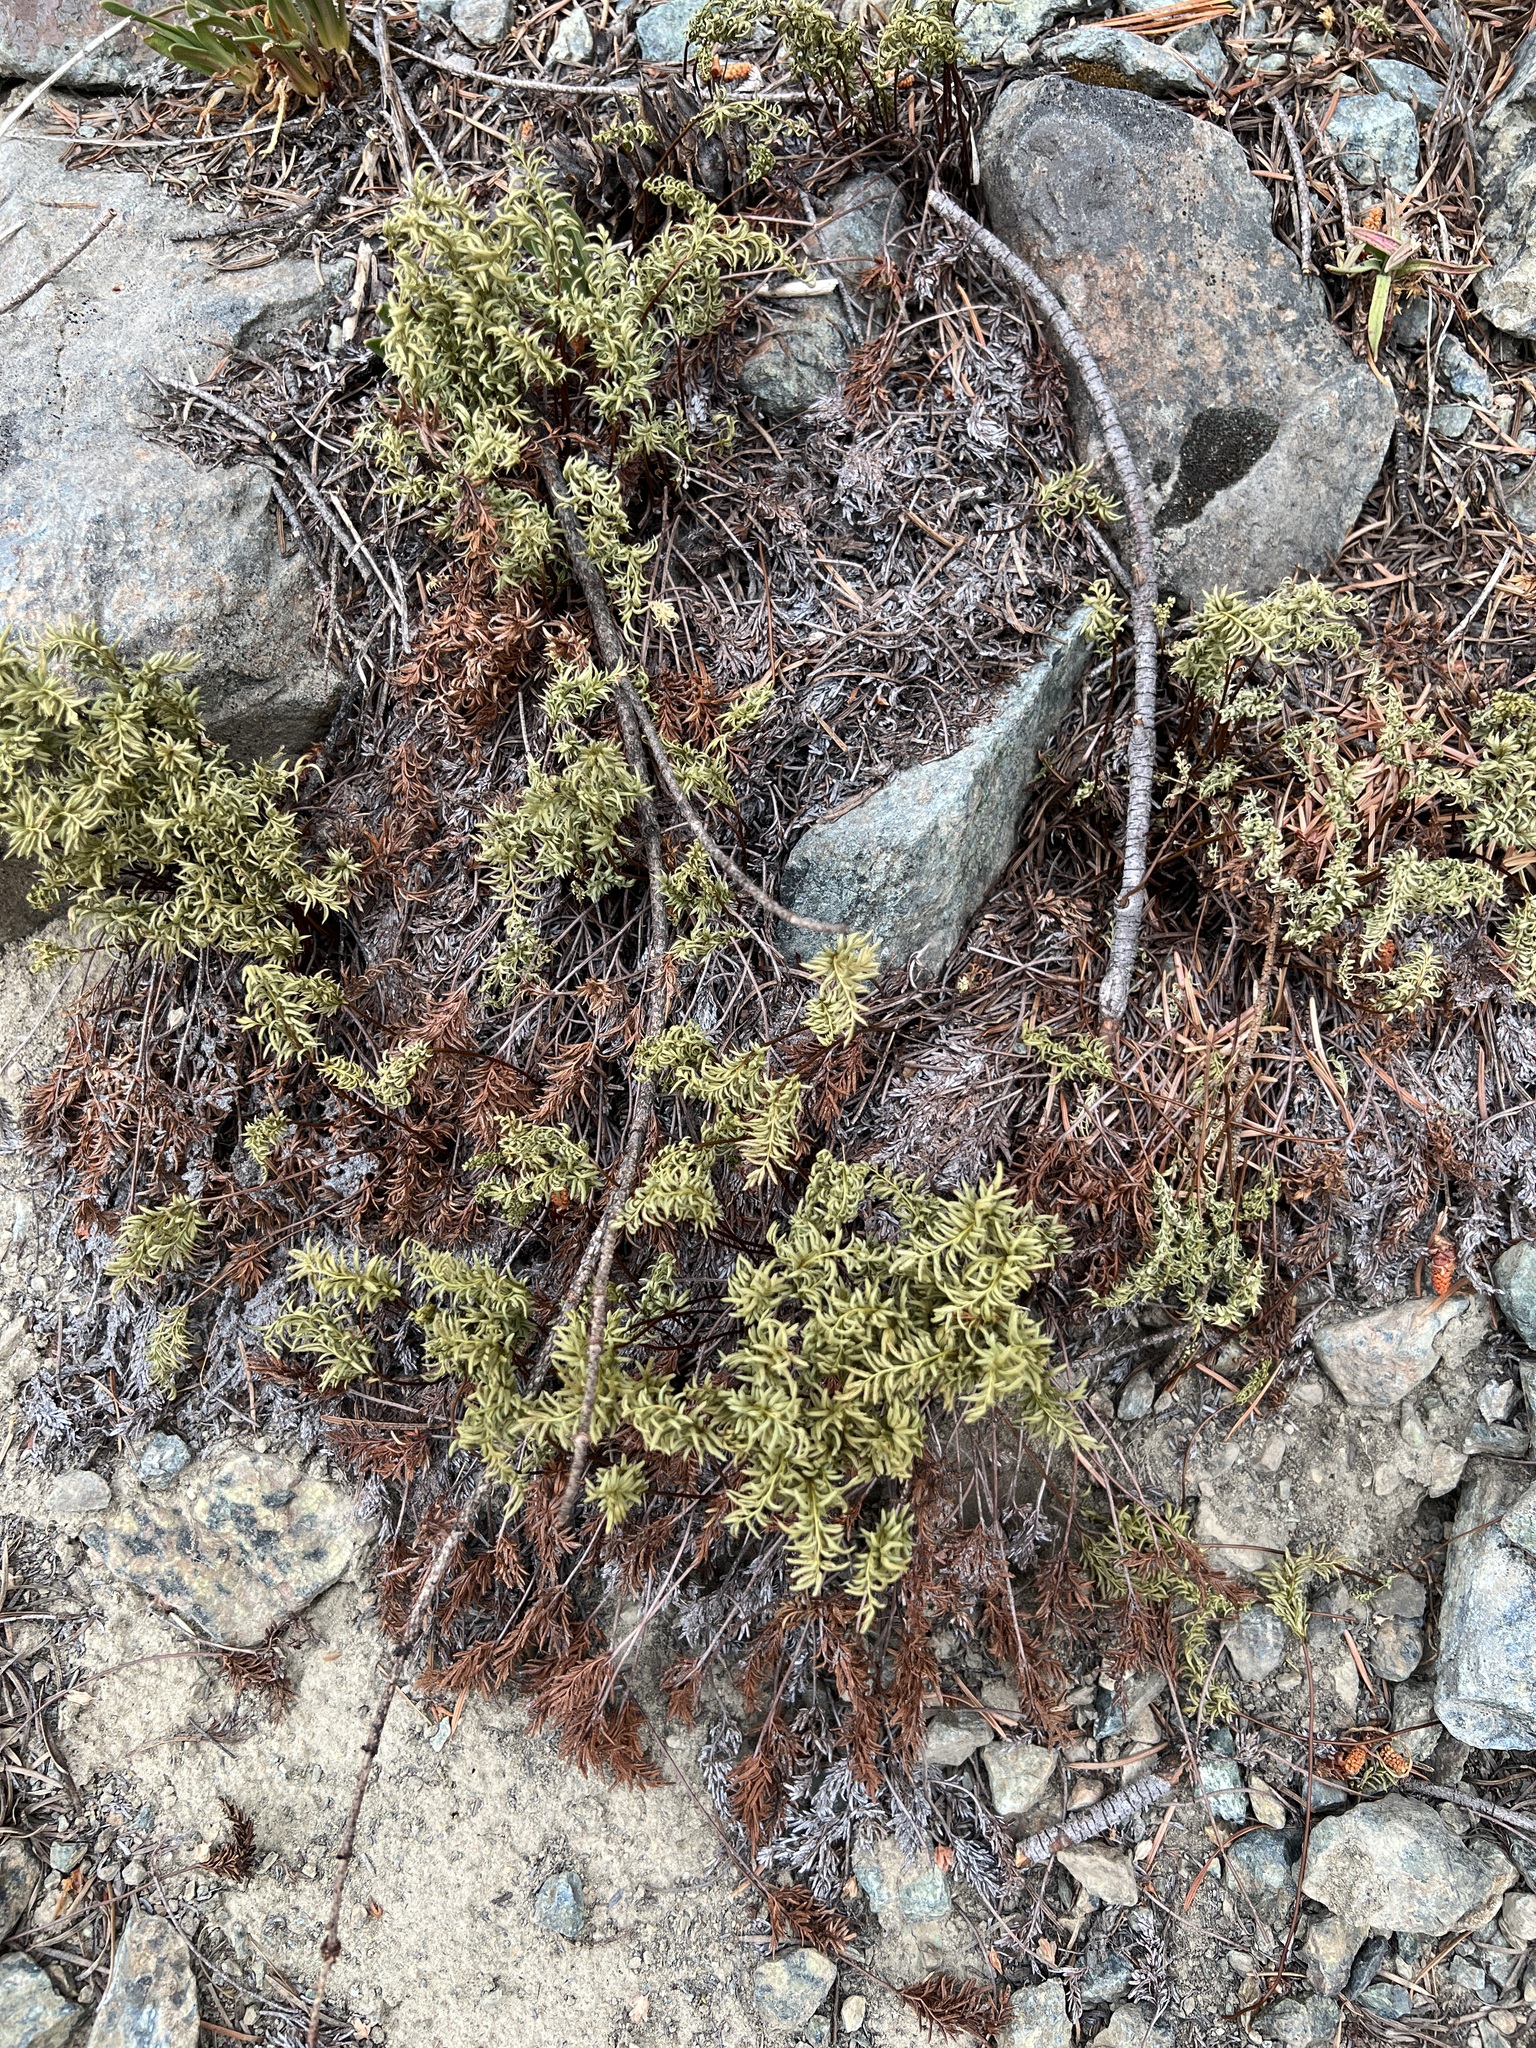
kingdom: Plantae
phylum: Tracheophyta
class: Polypodiopsida
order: Polypodiales
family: Pteridaceae
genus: Aspidotis
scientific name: Aspidotis densa
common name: Indian's dream
